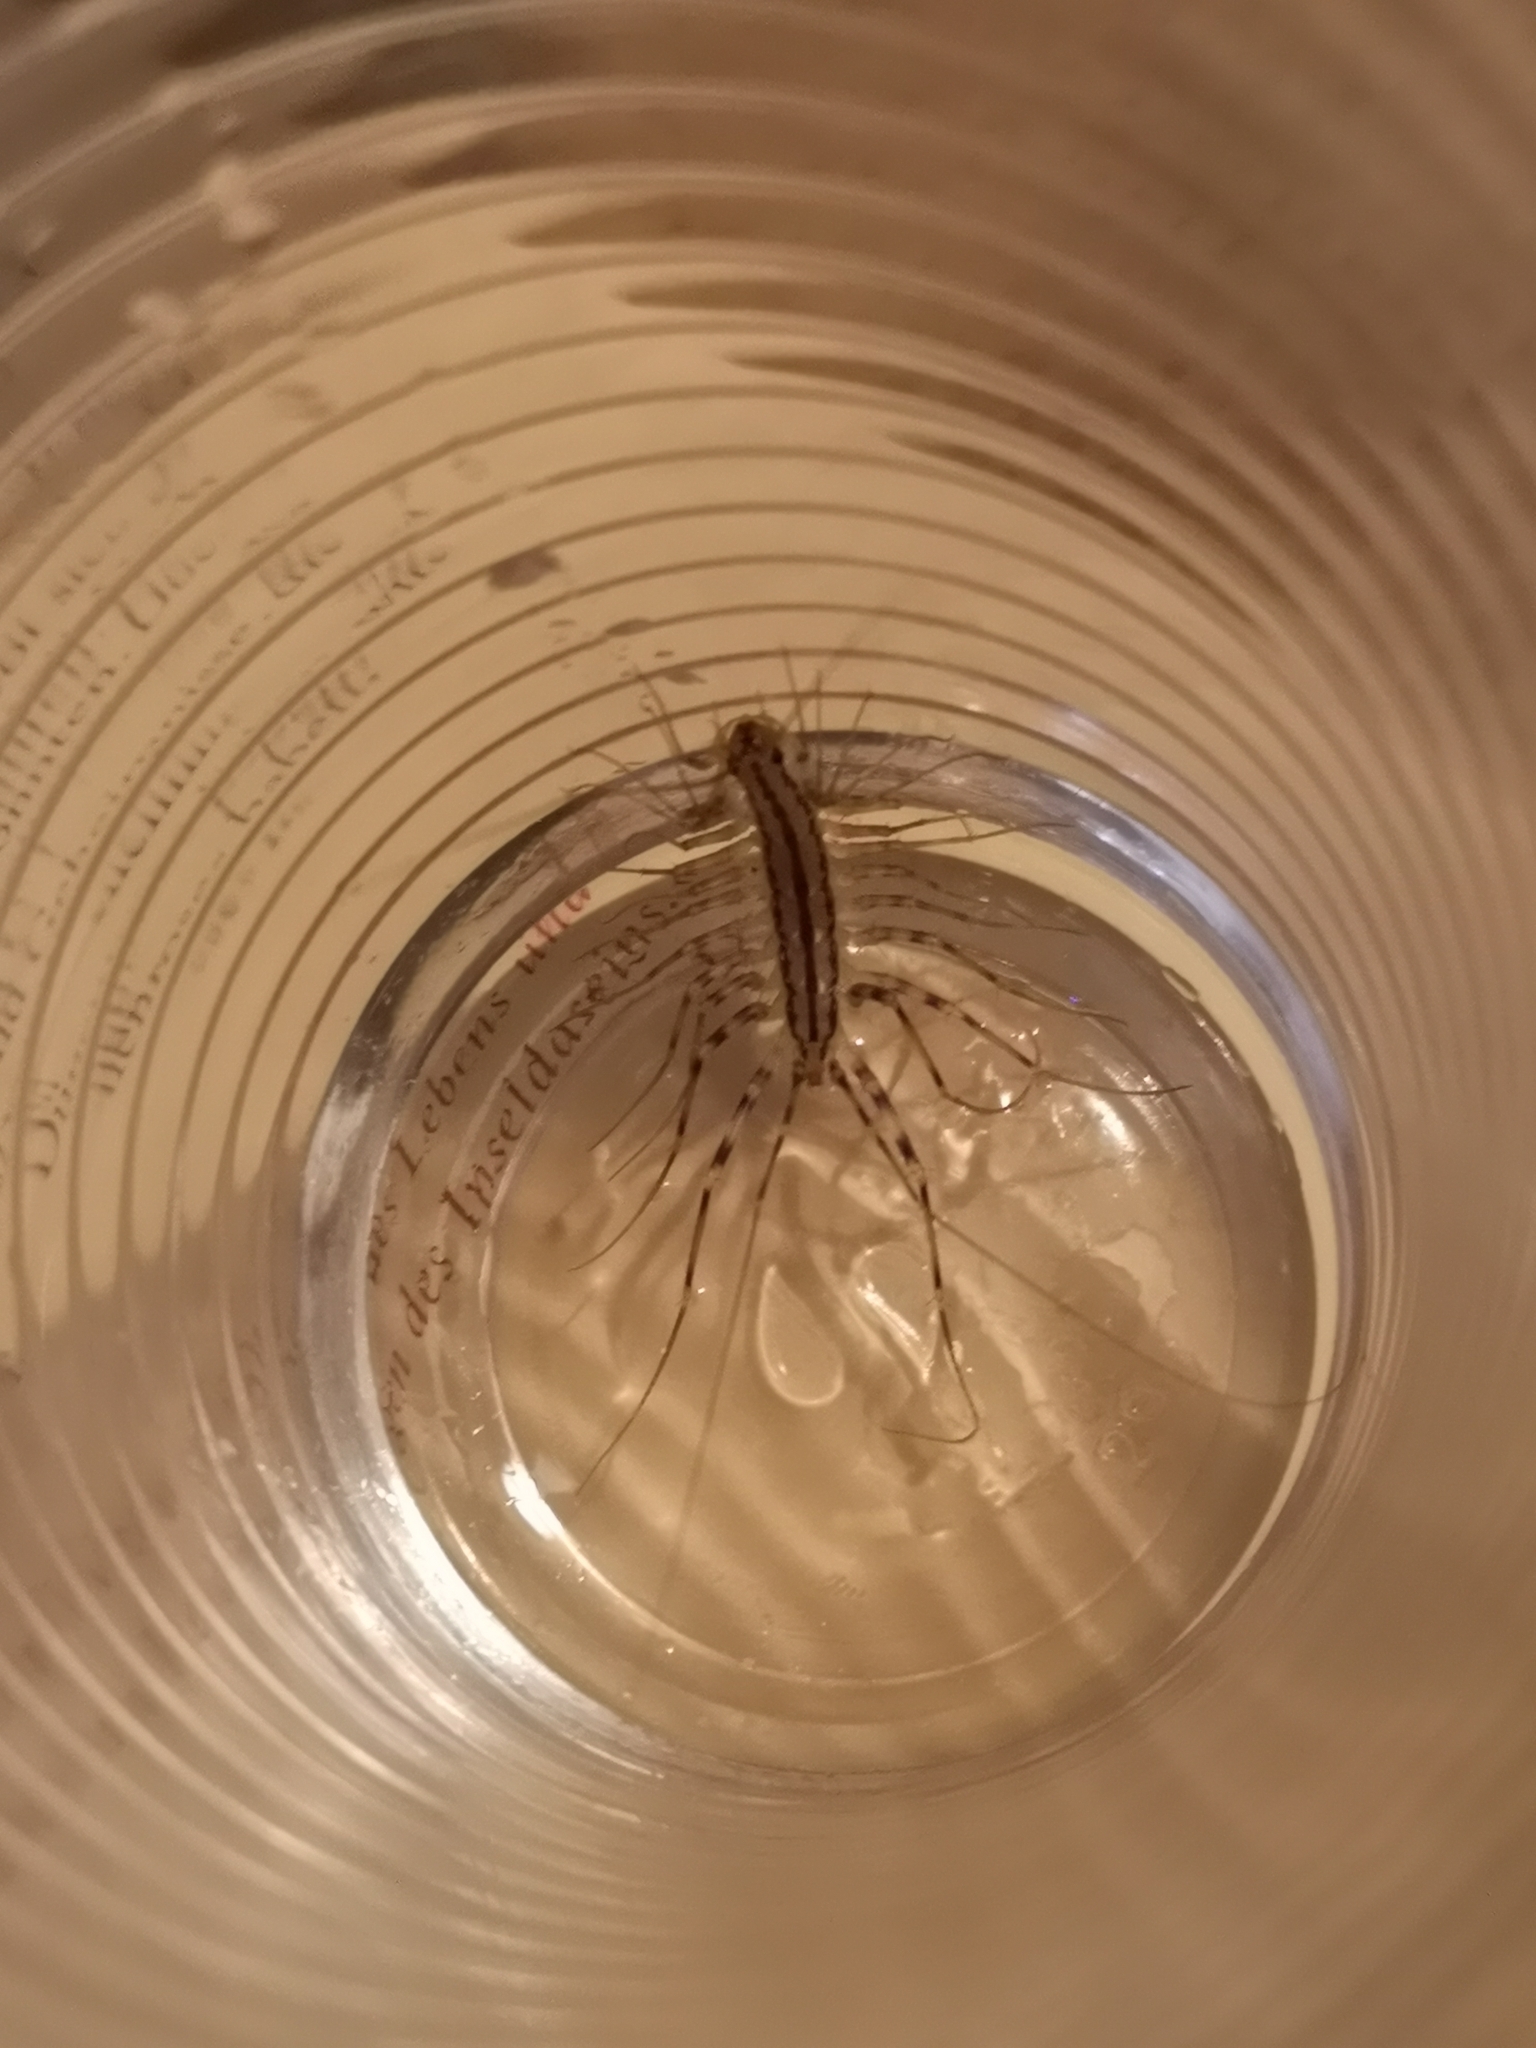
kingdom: Animalia
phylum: Arthropoda
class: Chilopoda
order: Scutigeromorpha
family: Scutigeridae
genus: Scutigera
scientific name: Scutigera coleoptrata
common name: House centipede
